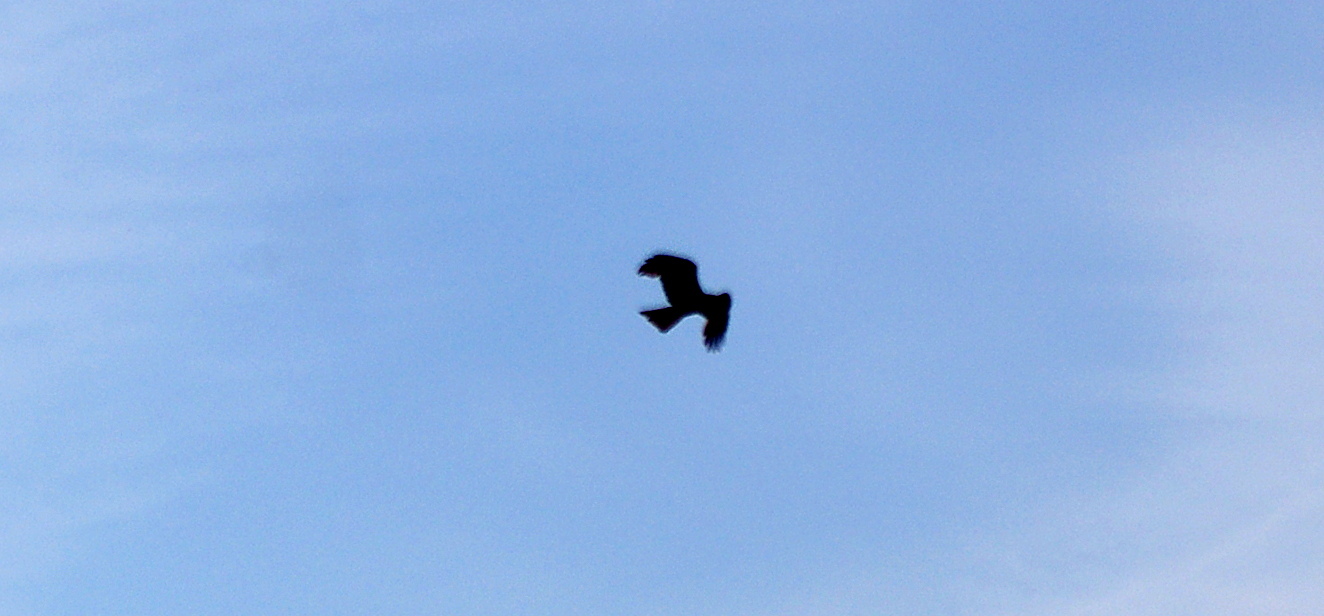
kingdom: Animalia
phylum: Chordata
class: Aves
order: Accipitriformes
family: Accipitridae
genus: Milvus
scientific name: Milvus migrans
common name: Black kite
